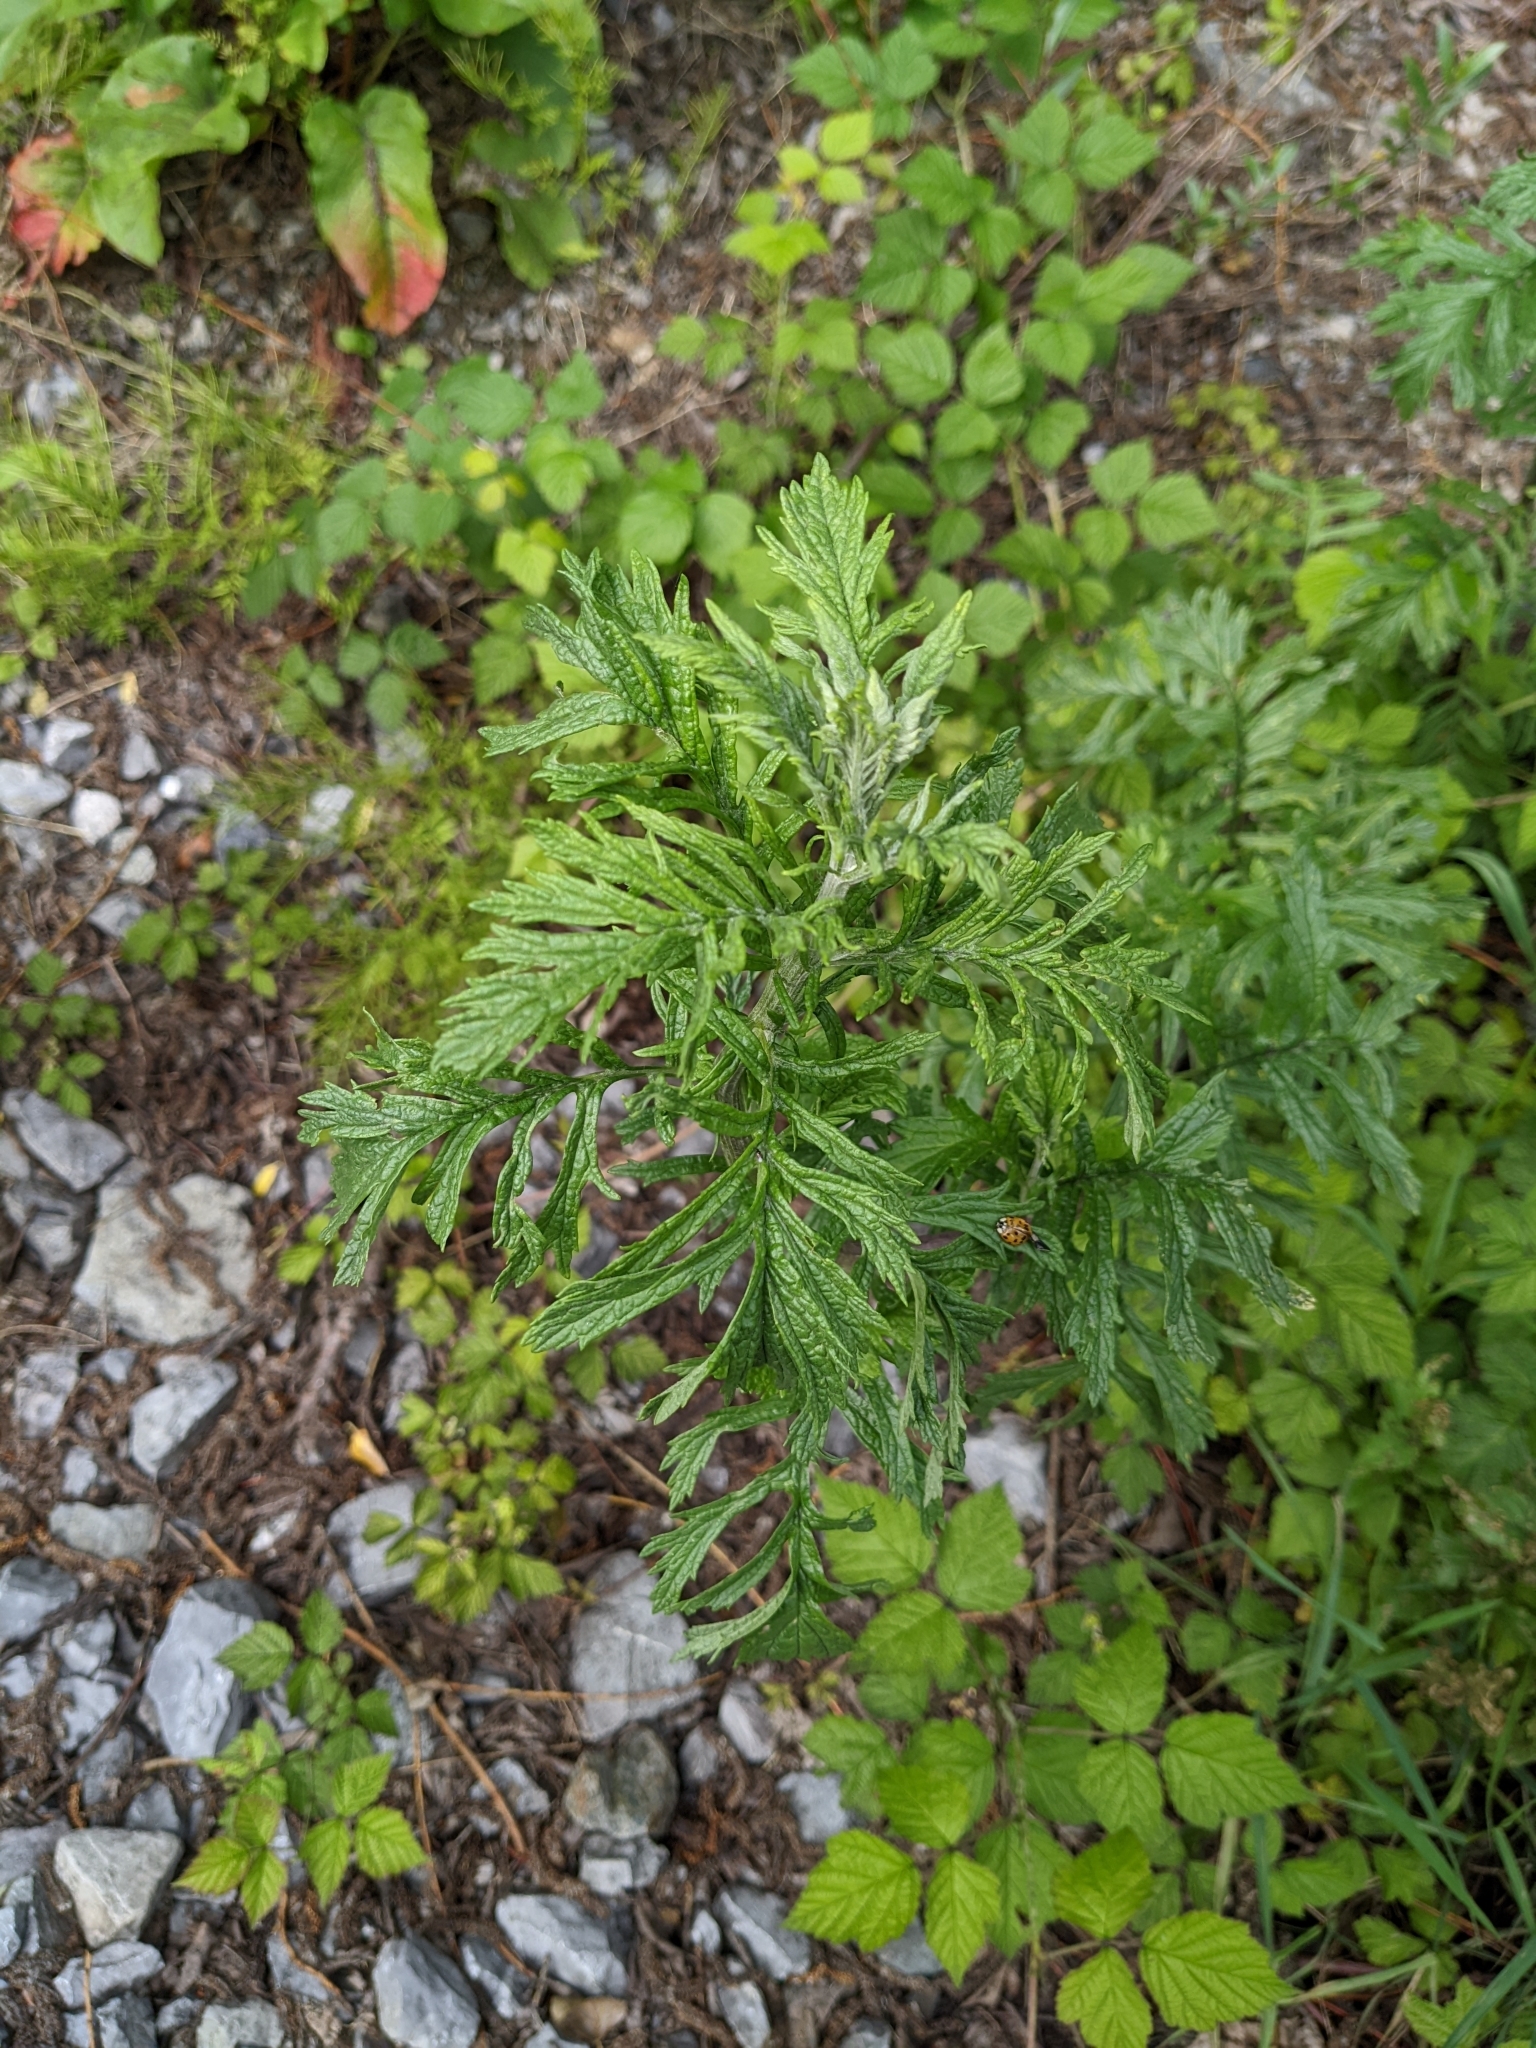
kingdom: Plantae
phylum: Tracheophyta
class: Magnoliopsida
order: Asterales
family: Asteraceae
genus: Artemisia
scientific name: Artemisia vulgaris
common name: Mugwort
